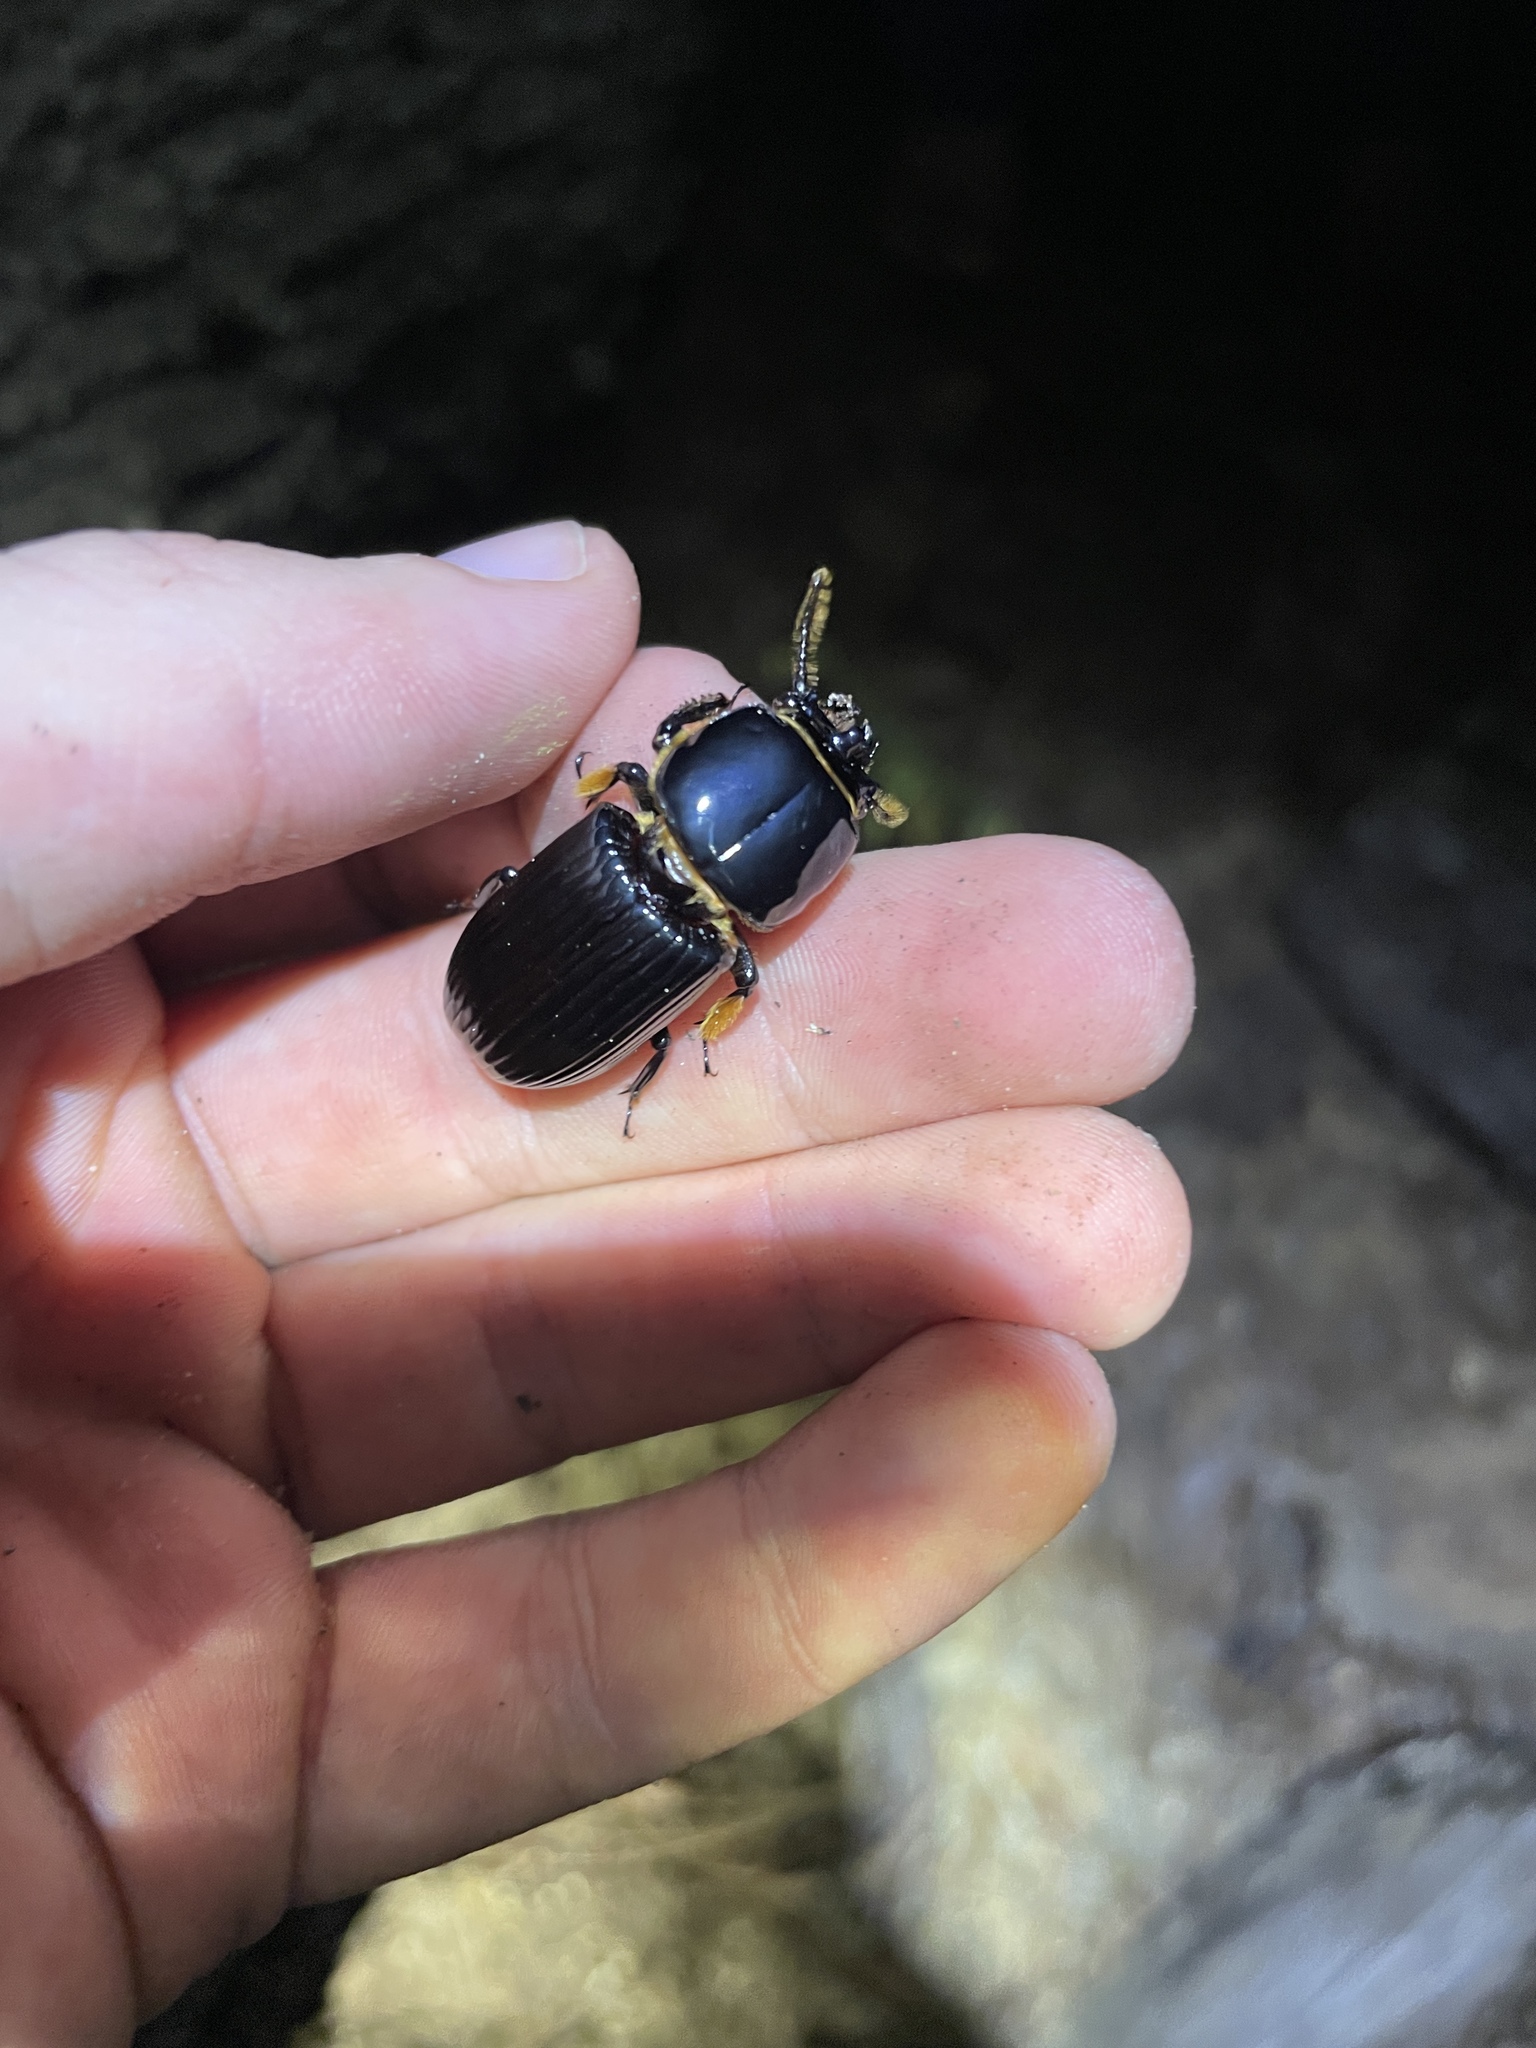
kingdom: Animalia
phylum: Arthropoda
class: Insecta
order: Coleoptera
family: Passalidae
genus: Odontotaenius
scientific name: Odontotaenius disjunctus
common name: Patent leather beetle
